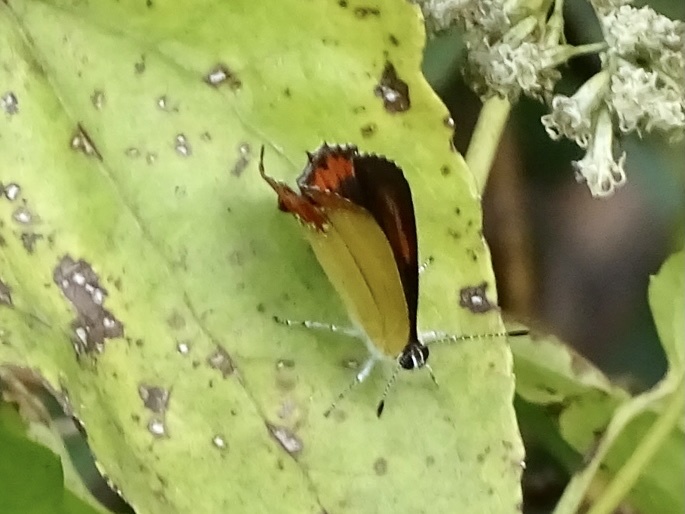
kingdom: Animalia
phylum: Arthropoda
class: Insecta
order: Lepidoptera
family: Lycaenidae
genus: Heliophorus
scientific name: Heliophorus epicles
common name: Purple sapphire
